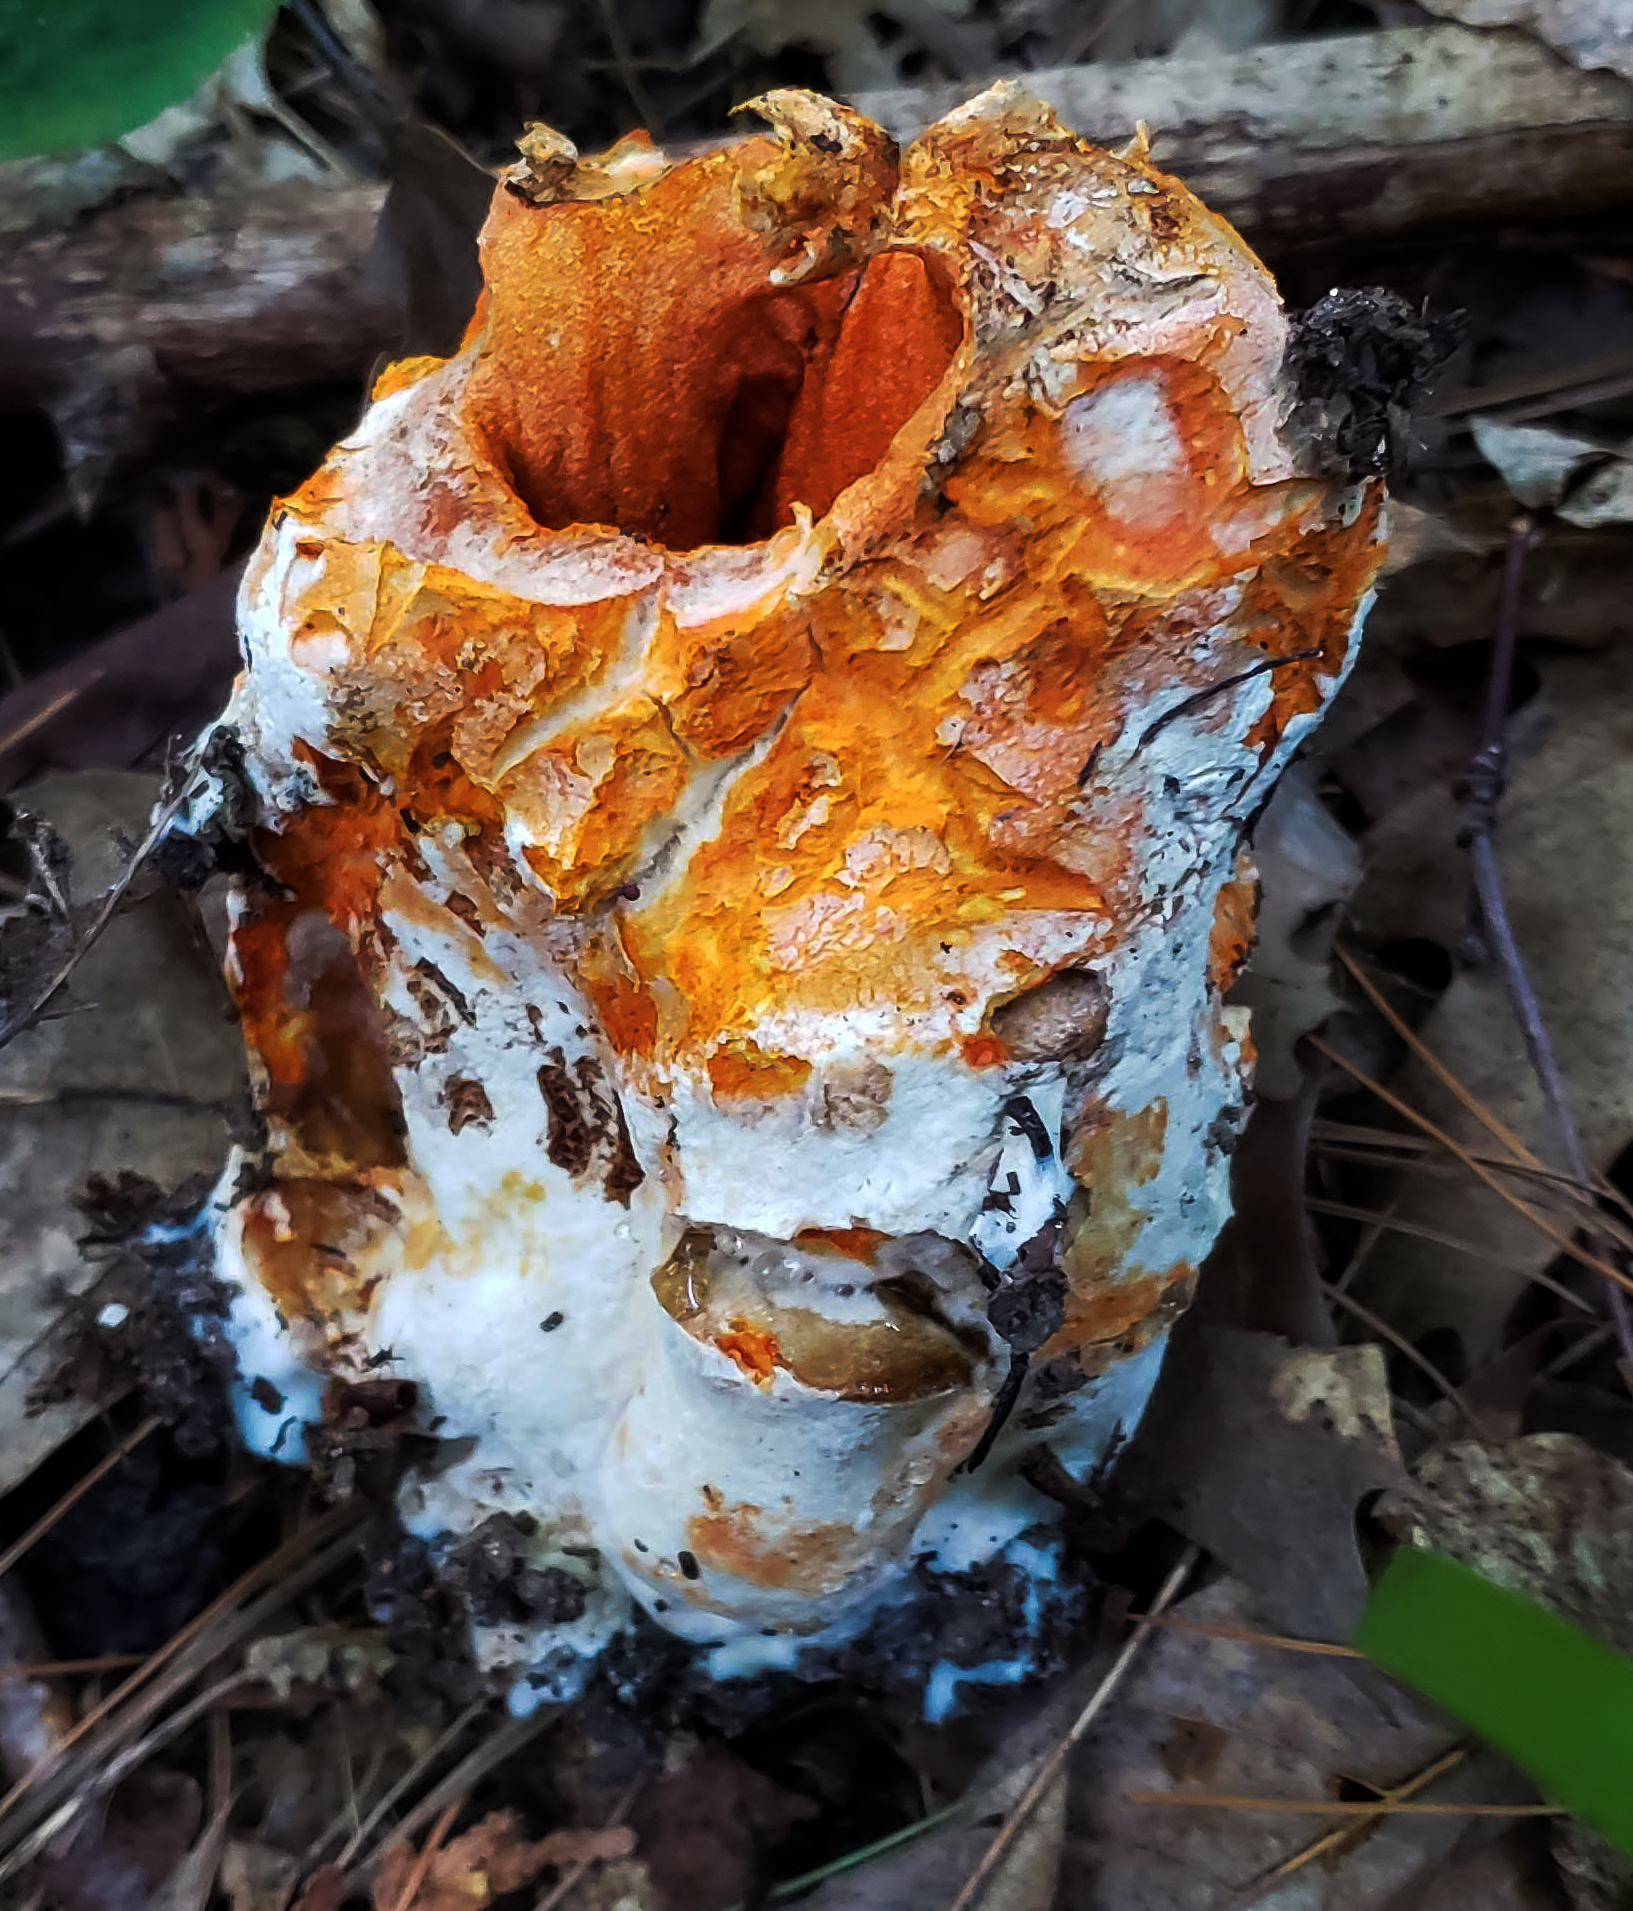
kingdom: Fungi
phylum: Ascomycota
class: Sordariomycetes
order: Hypocreales
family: Hypocreaceae
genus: Hypomyces
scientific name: Hypomyces lactifluorum
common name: Lobster mushroom
